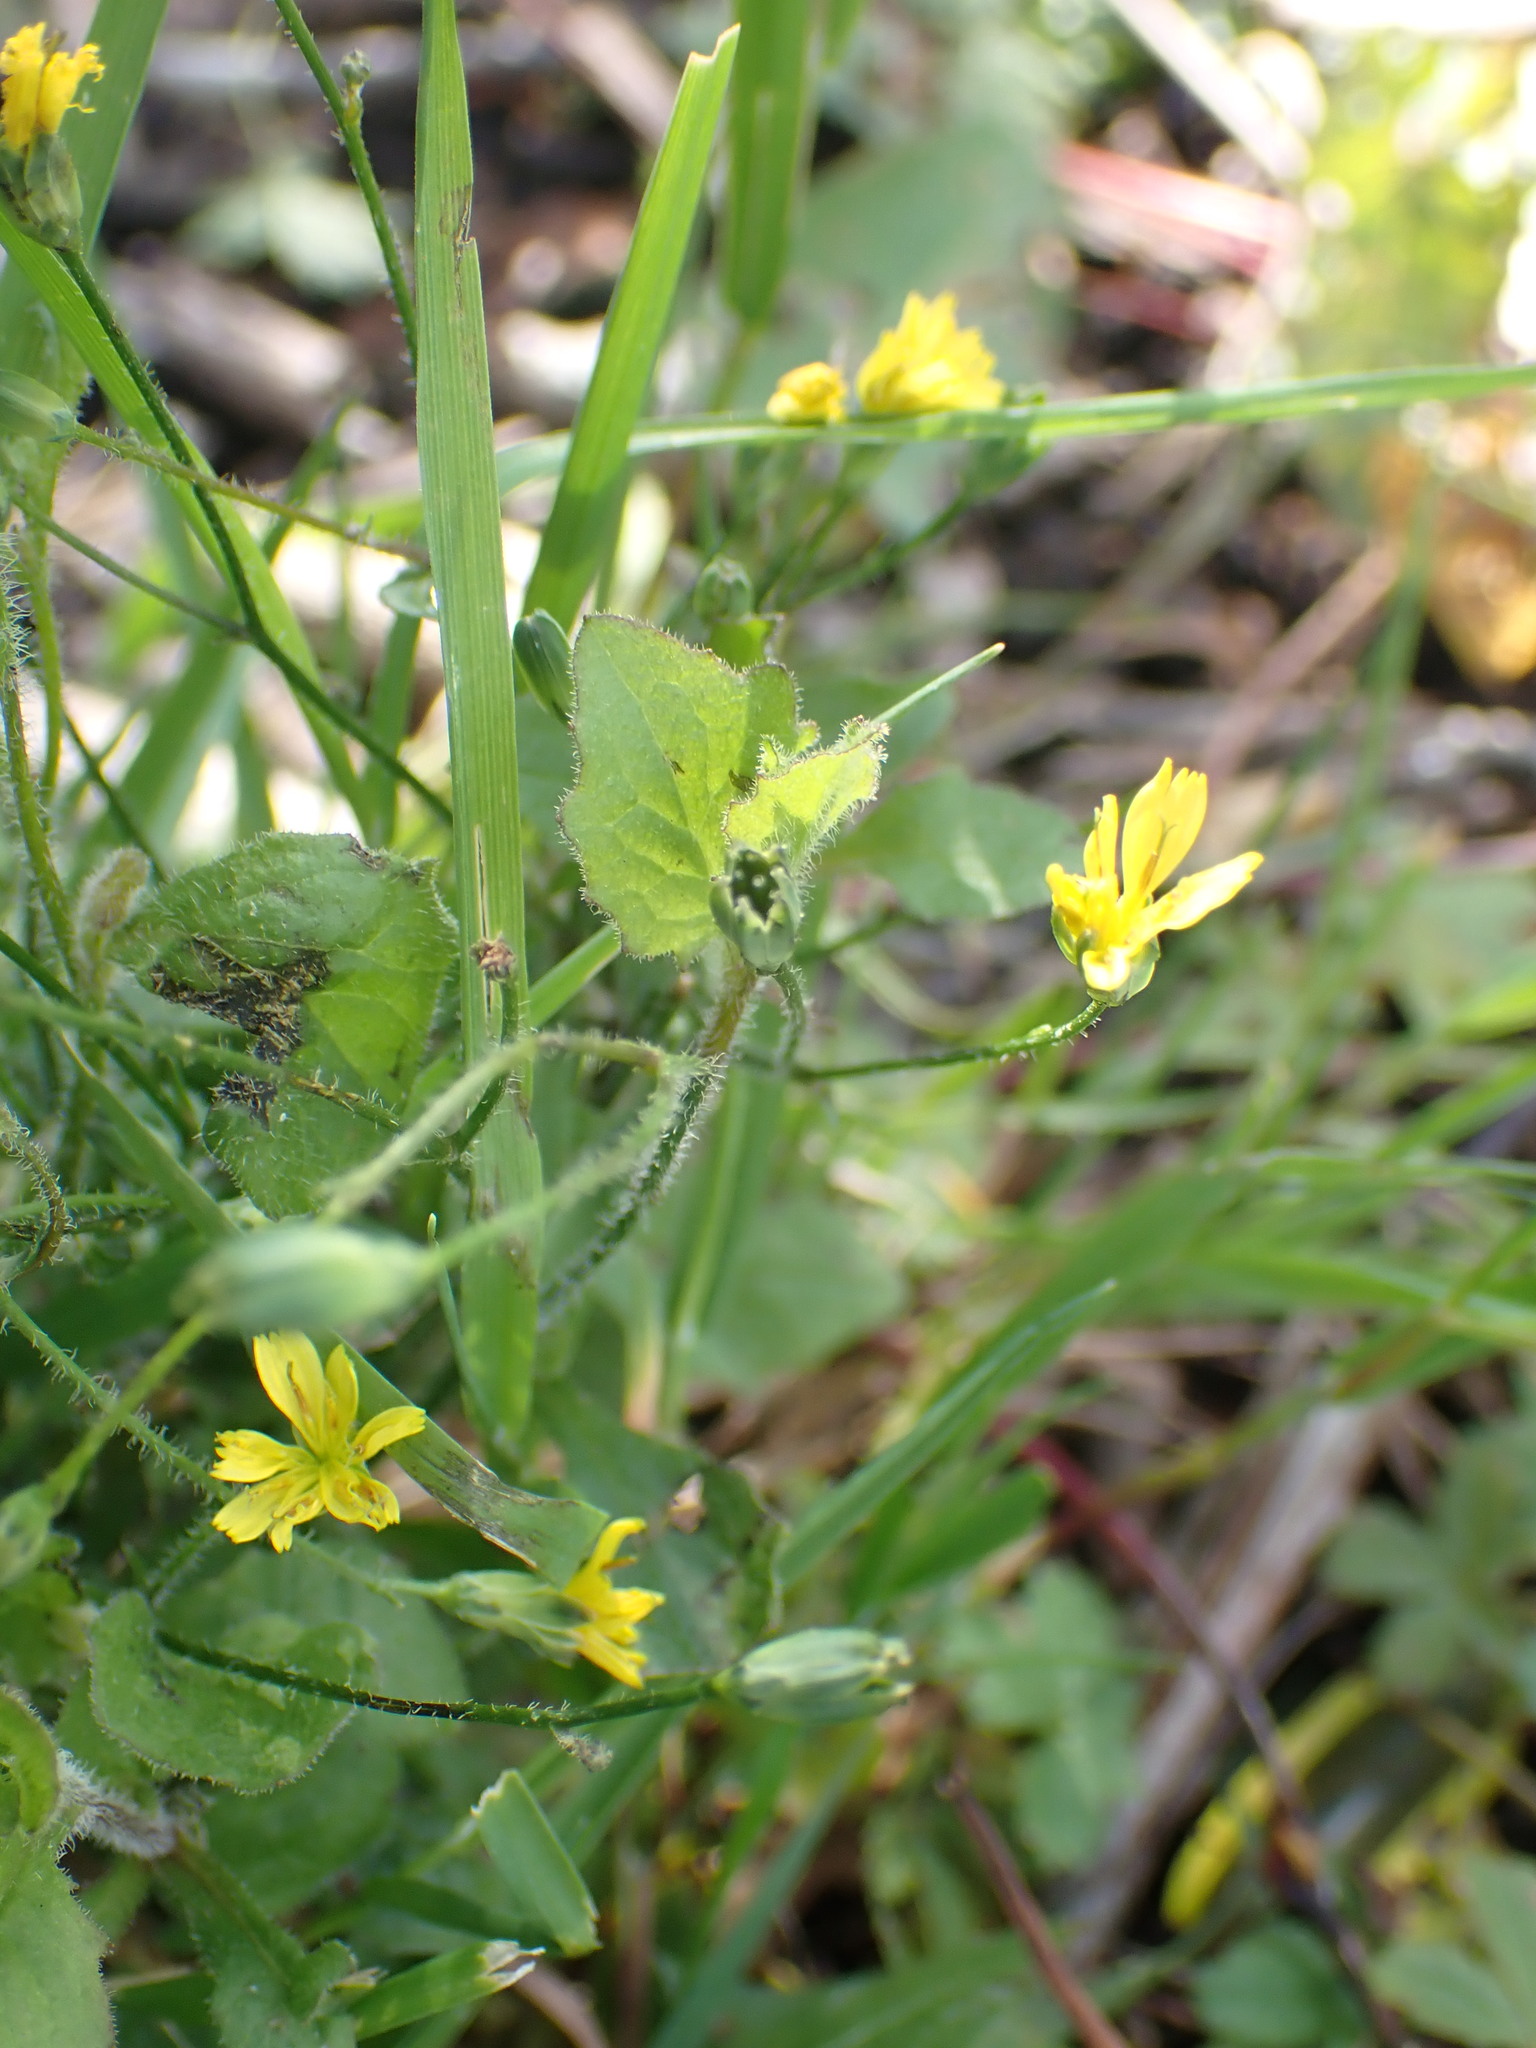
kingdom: Plantae
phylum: Tracheophyta
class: Magnoliopsida
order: Asterales
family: Asteraceae
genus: Lapsana
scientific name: Lapsana communis
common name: Nipplewort
